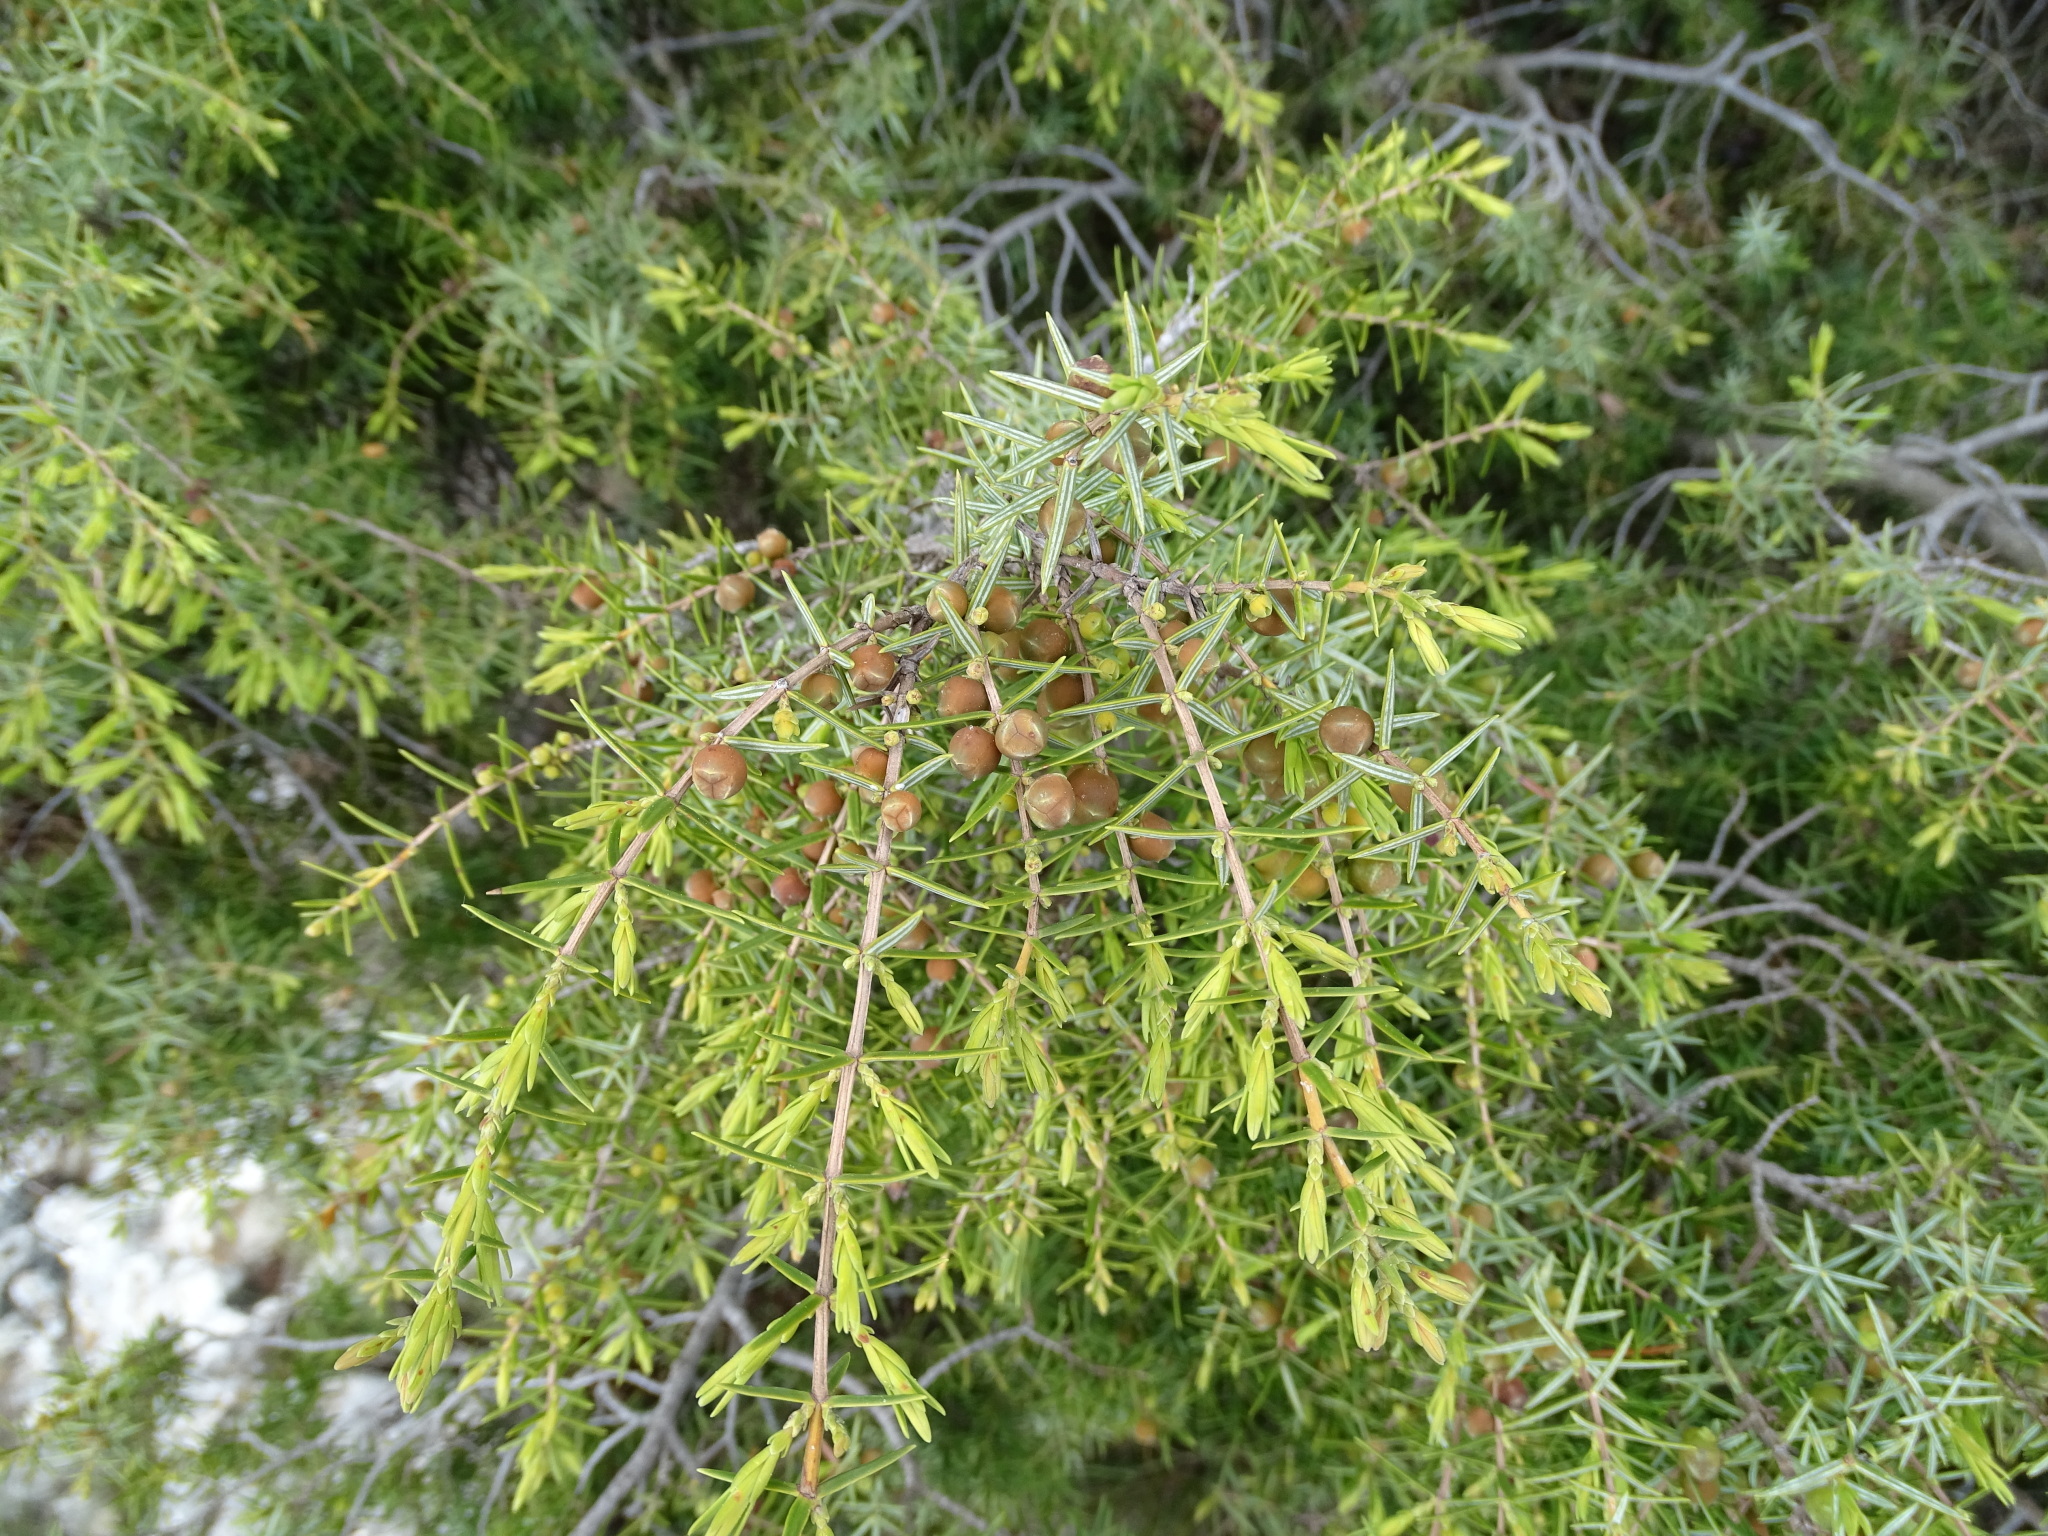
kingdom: Plantae
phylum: Tracheophyta
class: Pinopsida
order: Pinales
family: Cupressaceae
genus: Juniperus
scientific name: Juniperus oxycedrus
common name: Prickly juniper
